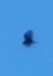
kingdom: Animalia
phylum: Chordata
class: Aves
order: Accipitriformes
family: Cathartidae
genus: Cathartes
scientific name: Cathartes aura
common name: Turkey vulture
